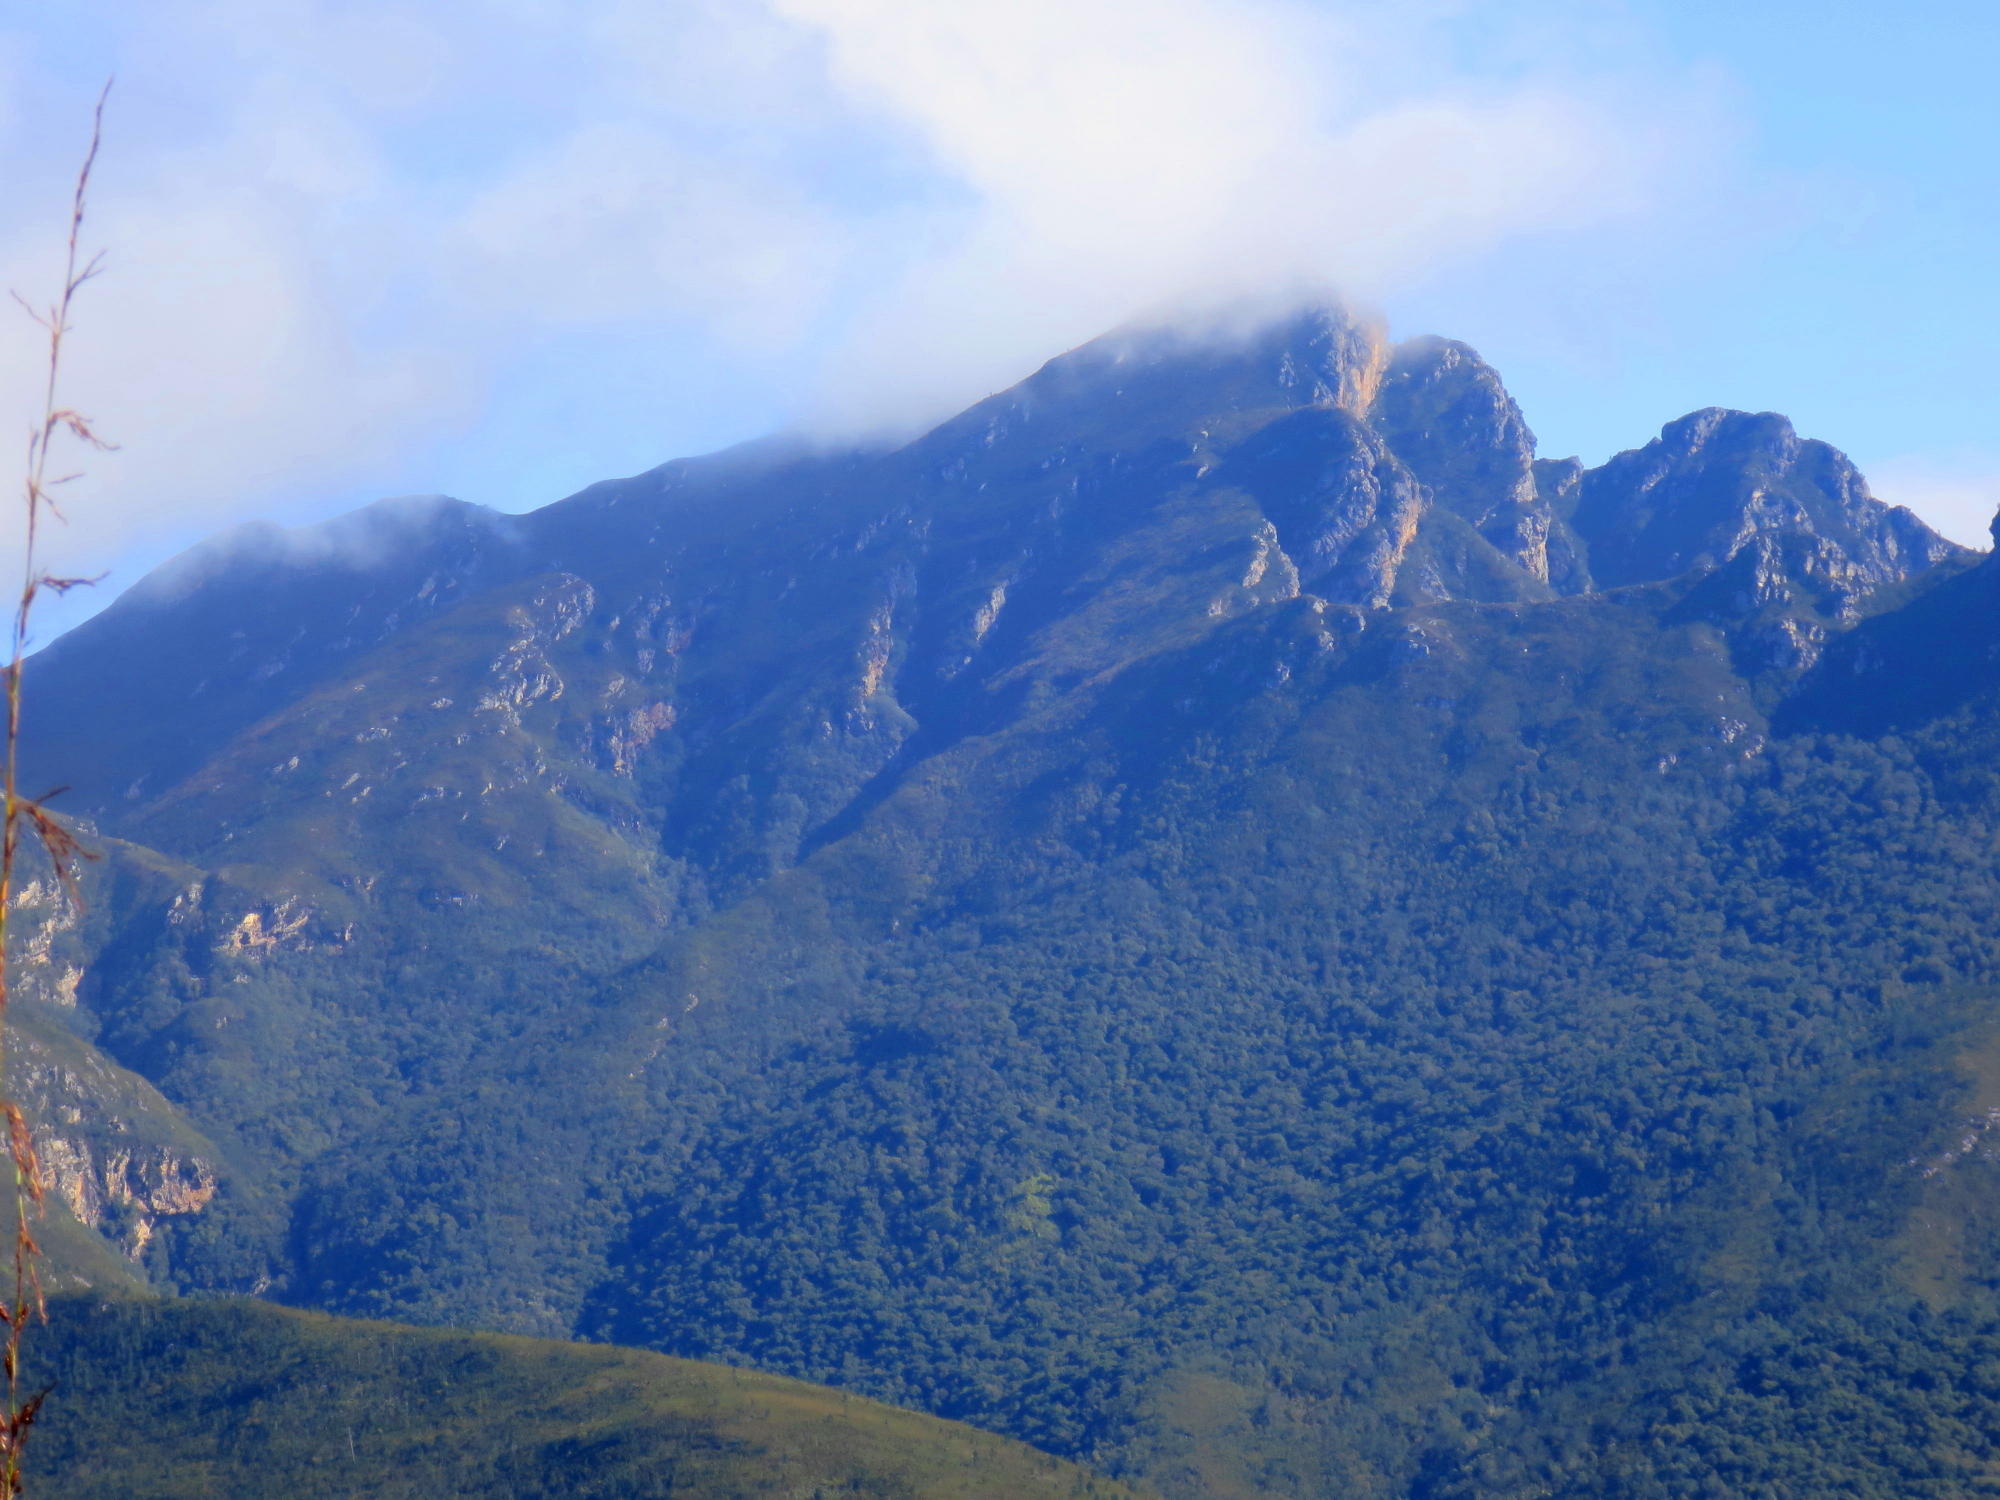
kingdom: Plantae
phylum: Tracheophyta
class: Liliopsida
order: Poales
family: Restionaceae
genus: Rhodocoma
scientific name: Rhodocoma gigantea
